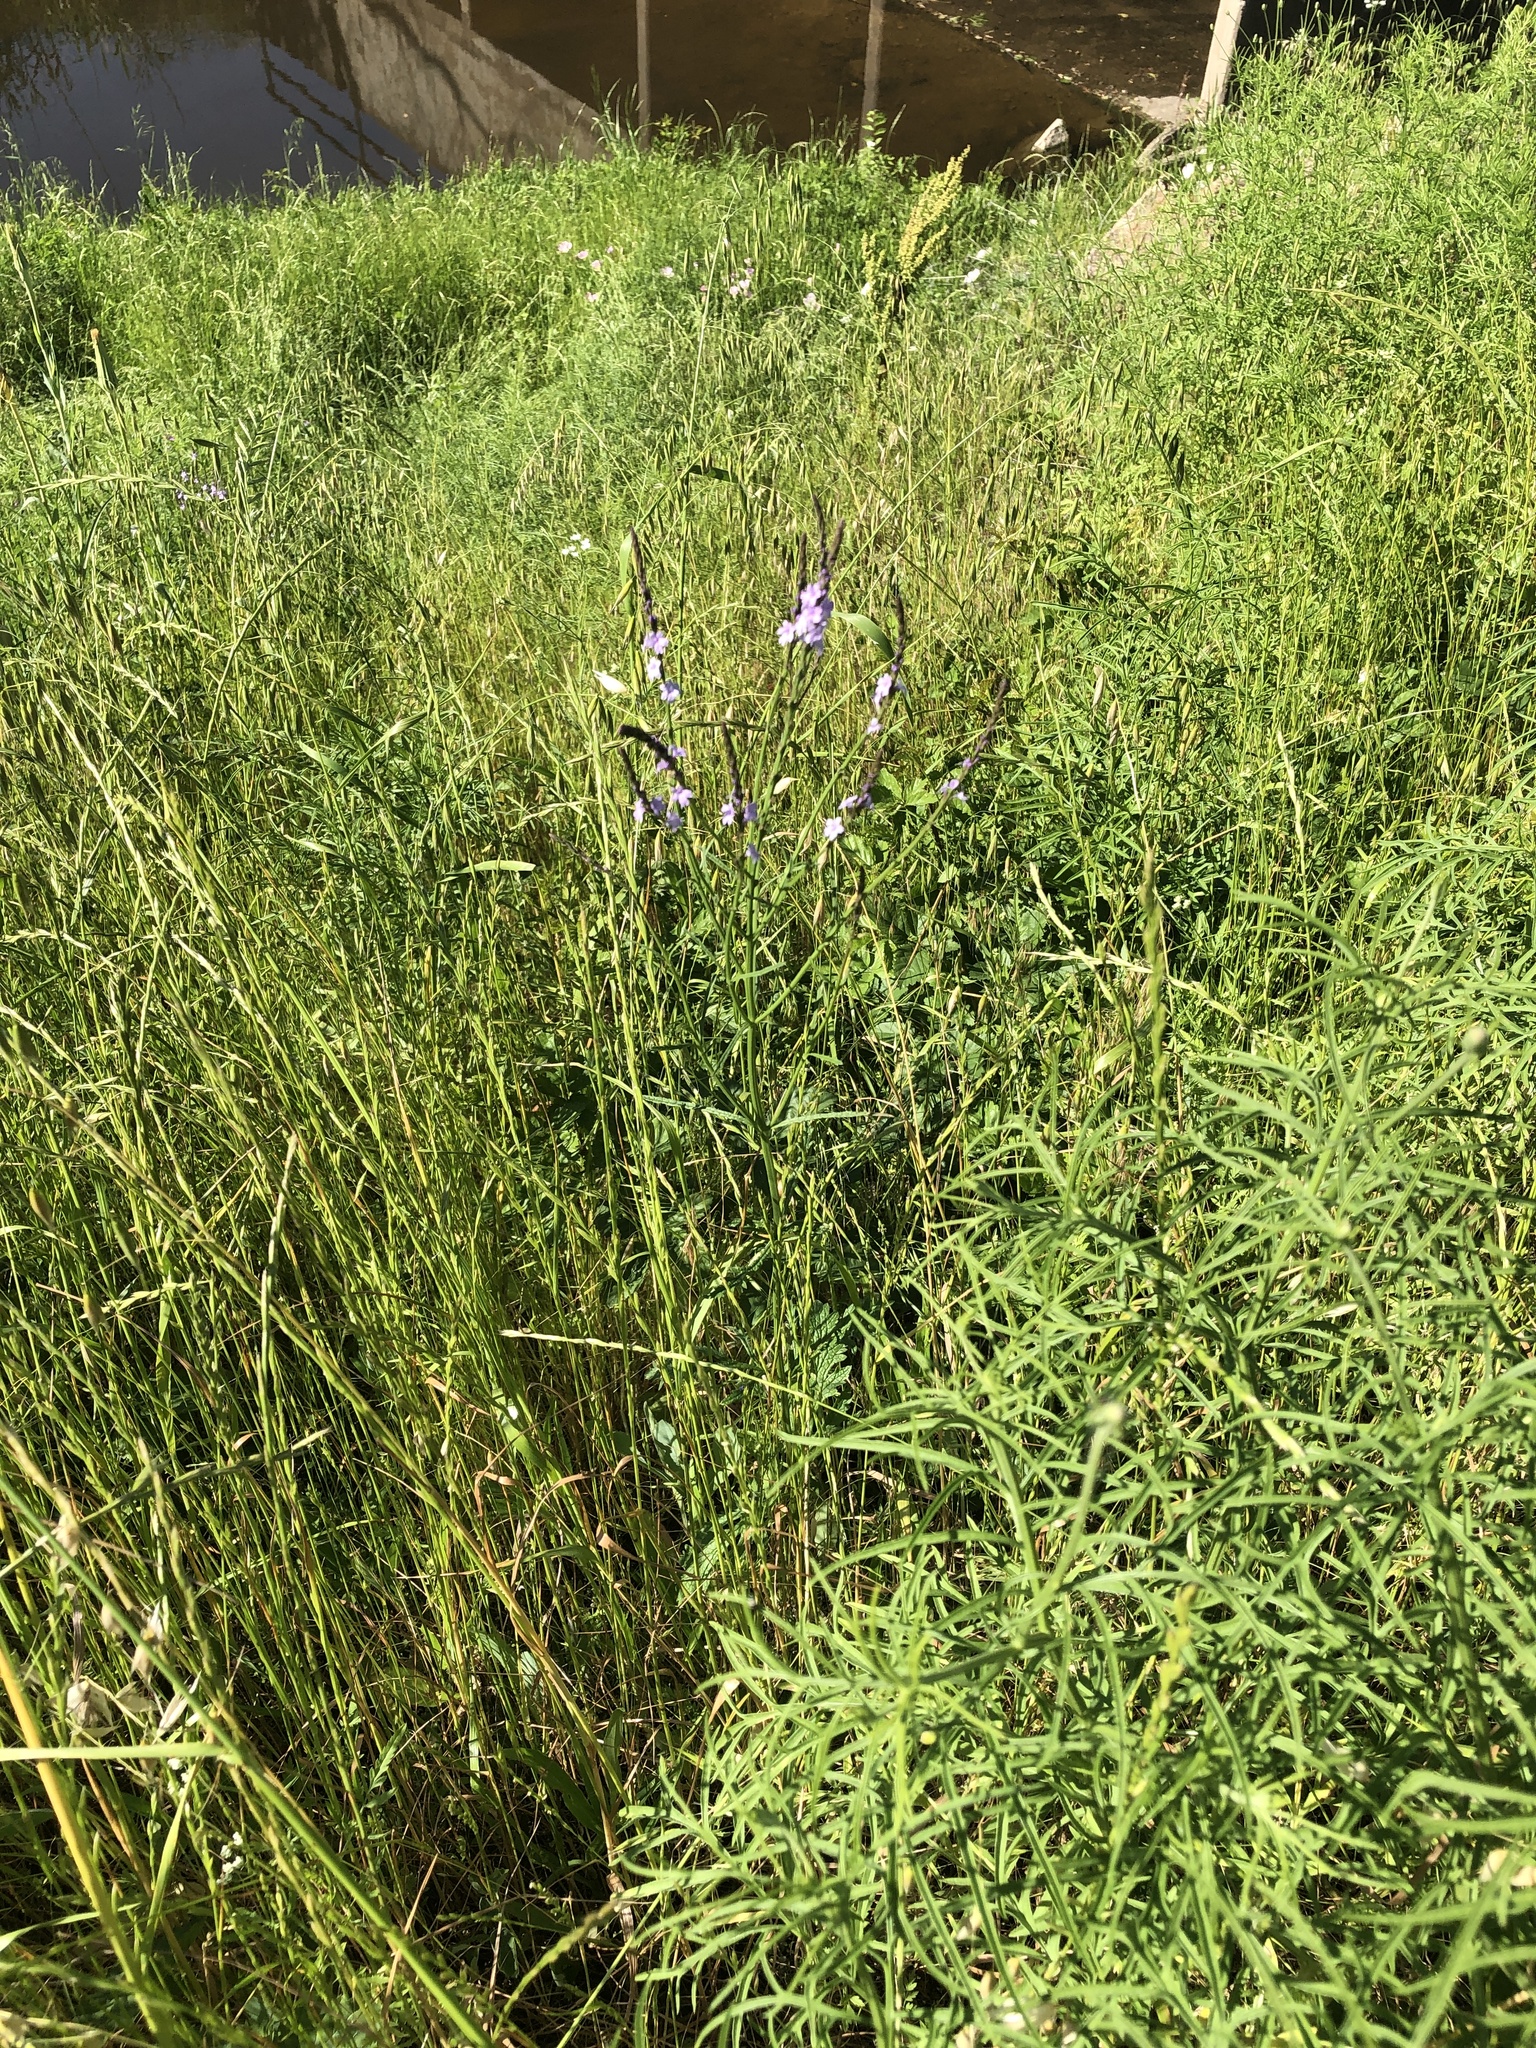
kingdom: Plantae
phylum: Tracheophyta
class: Magnoliopsida
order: Lamiales
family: Verbenaceae
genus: Verbena
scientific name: Verbena halei
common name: Texas vervain
